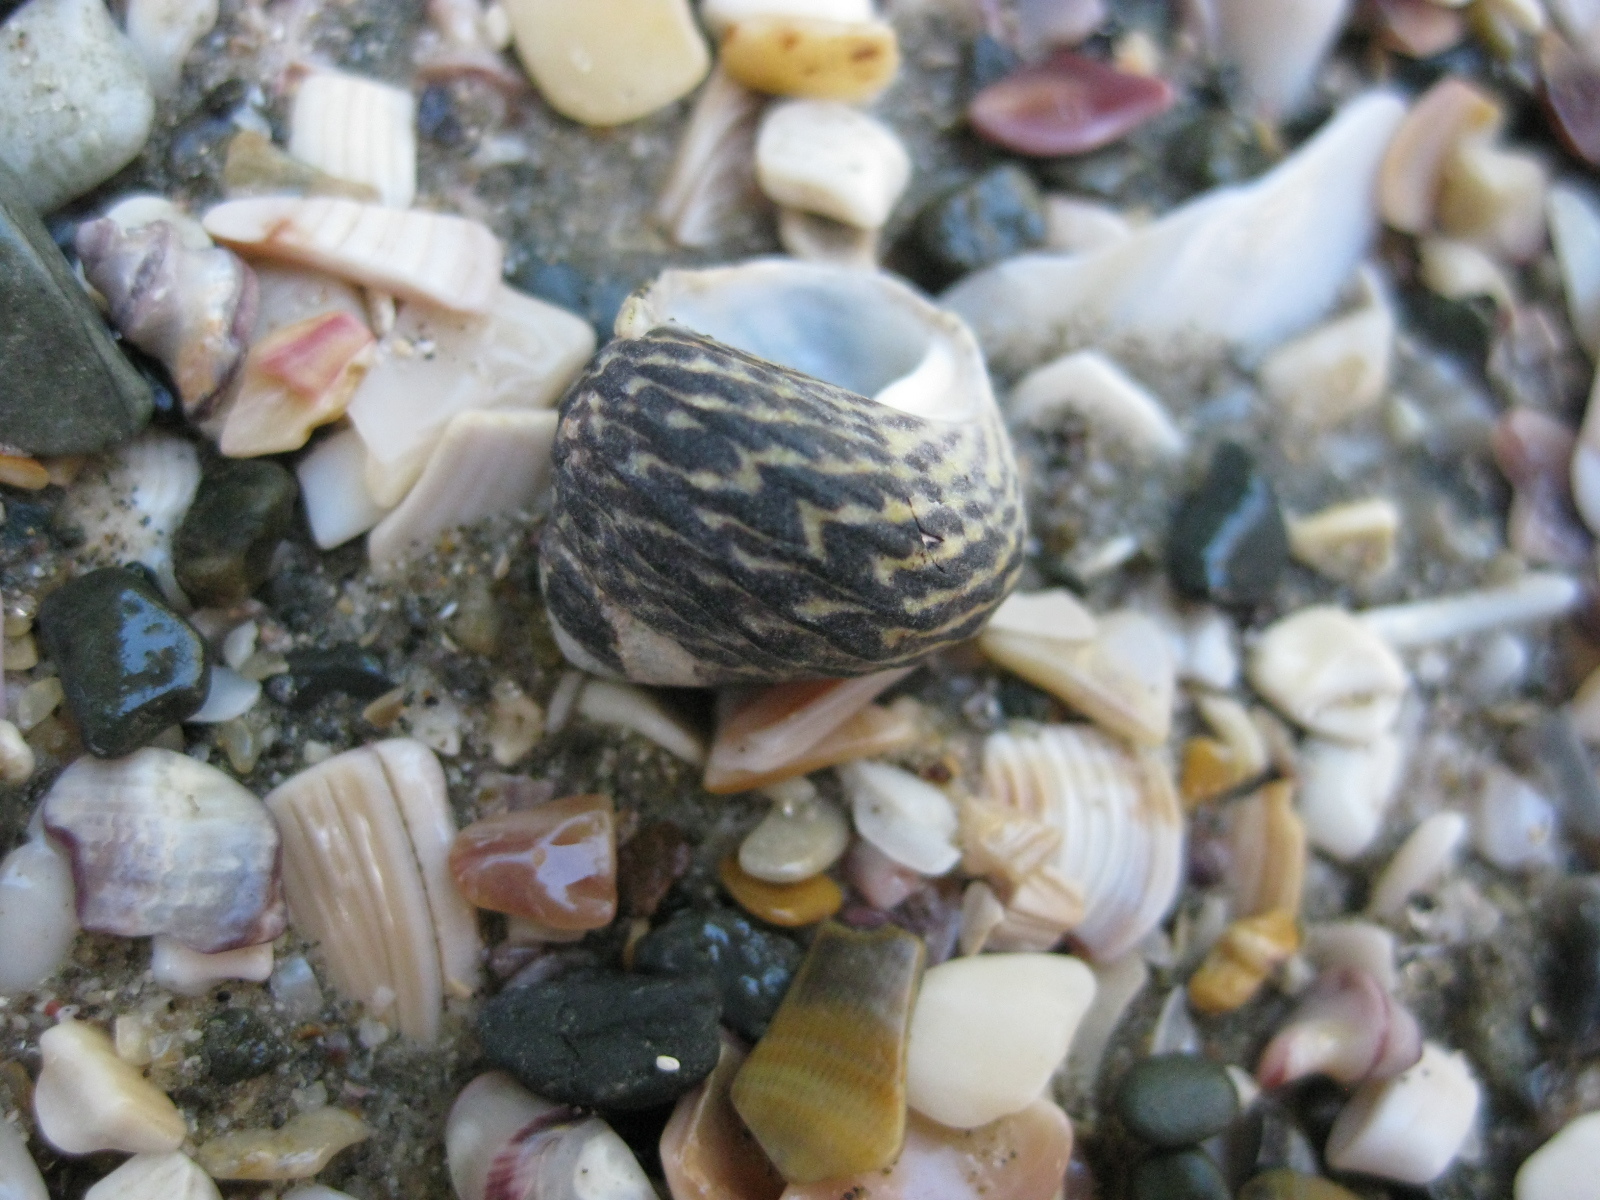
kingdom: Animalia
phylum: Mollusca
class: Gastropoda
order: Trochida
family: Trochidae
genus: Diloma
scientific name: Diloma subrostratum
